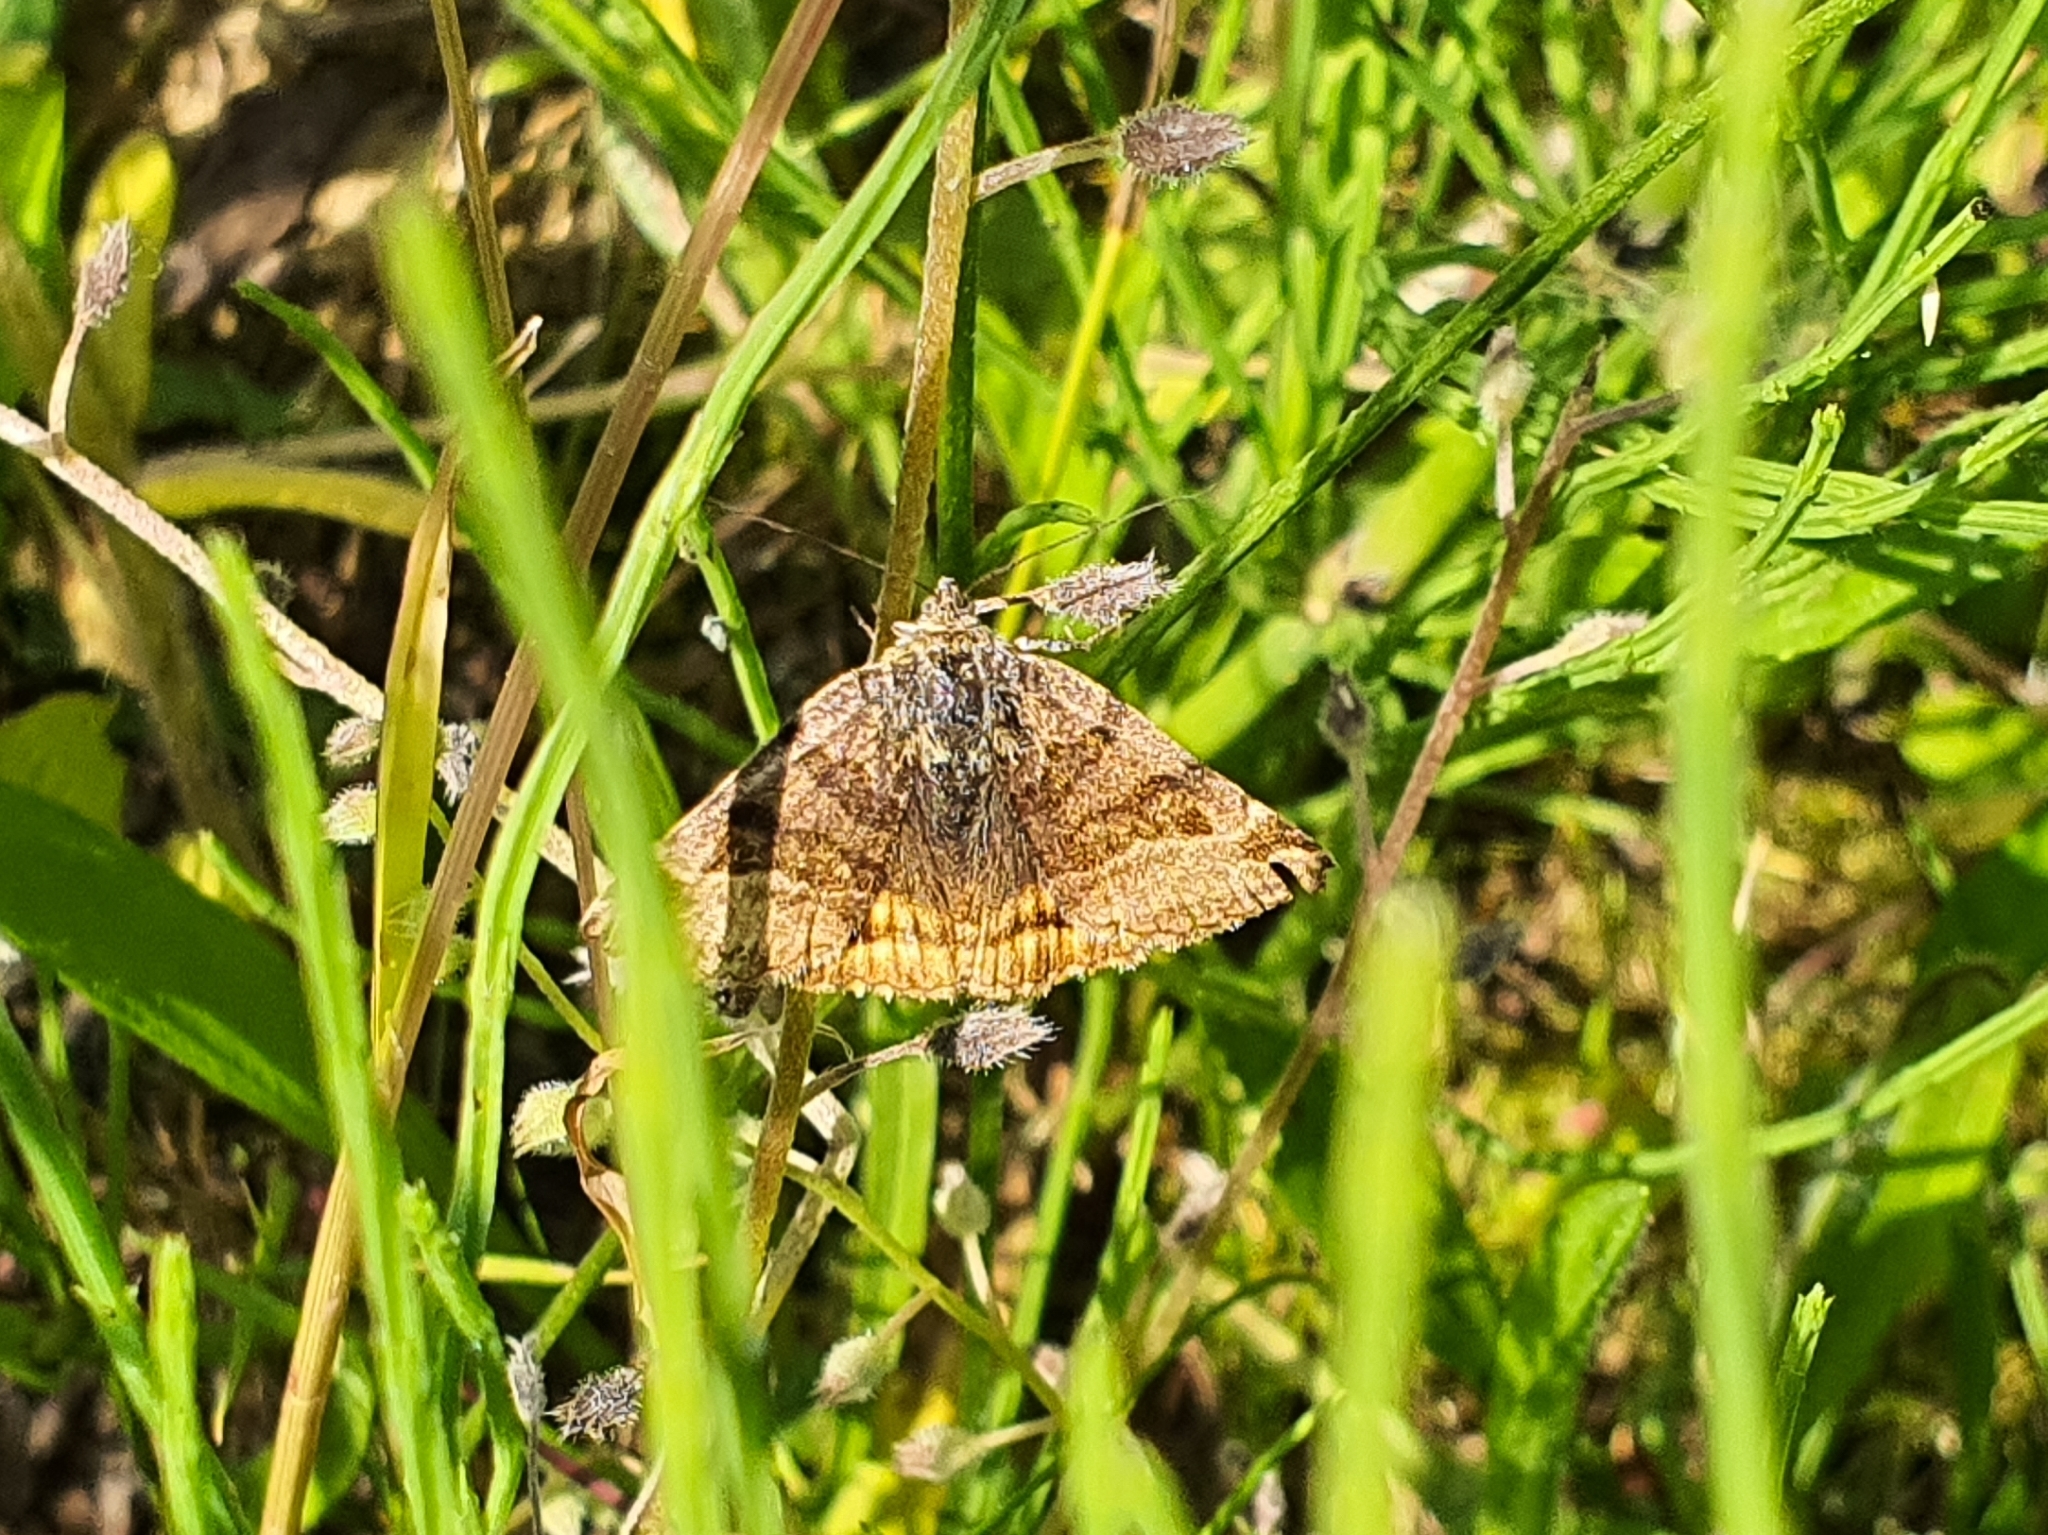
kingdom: Animalia
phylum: Arthropoda
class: Insecta
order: Lepidoptera
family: Erebidae
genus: Euclidia
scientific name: Euclidia glyphica
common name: Burnet companion
